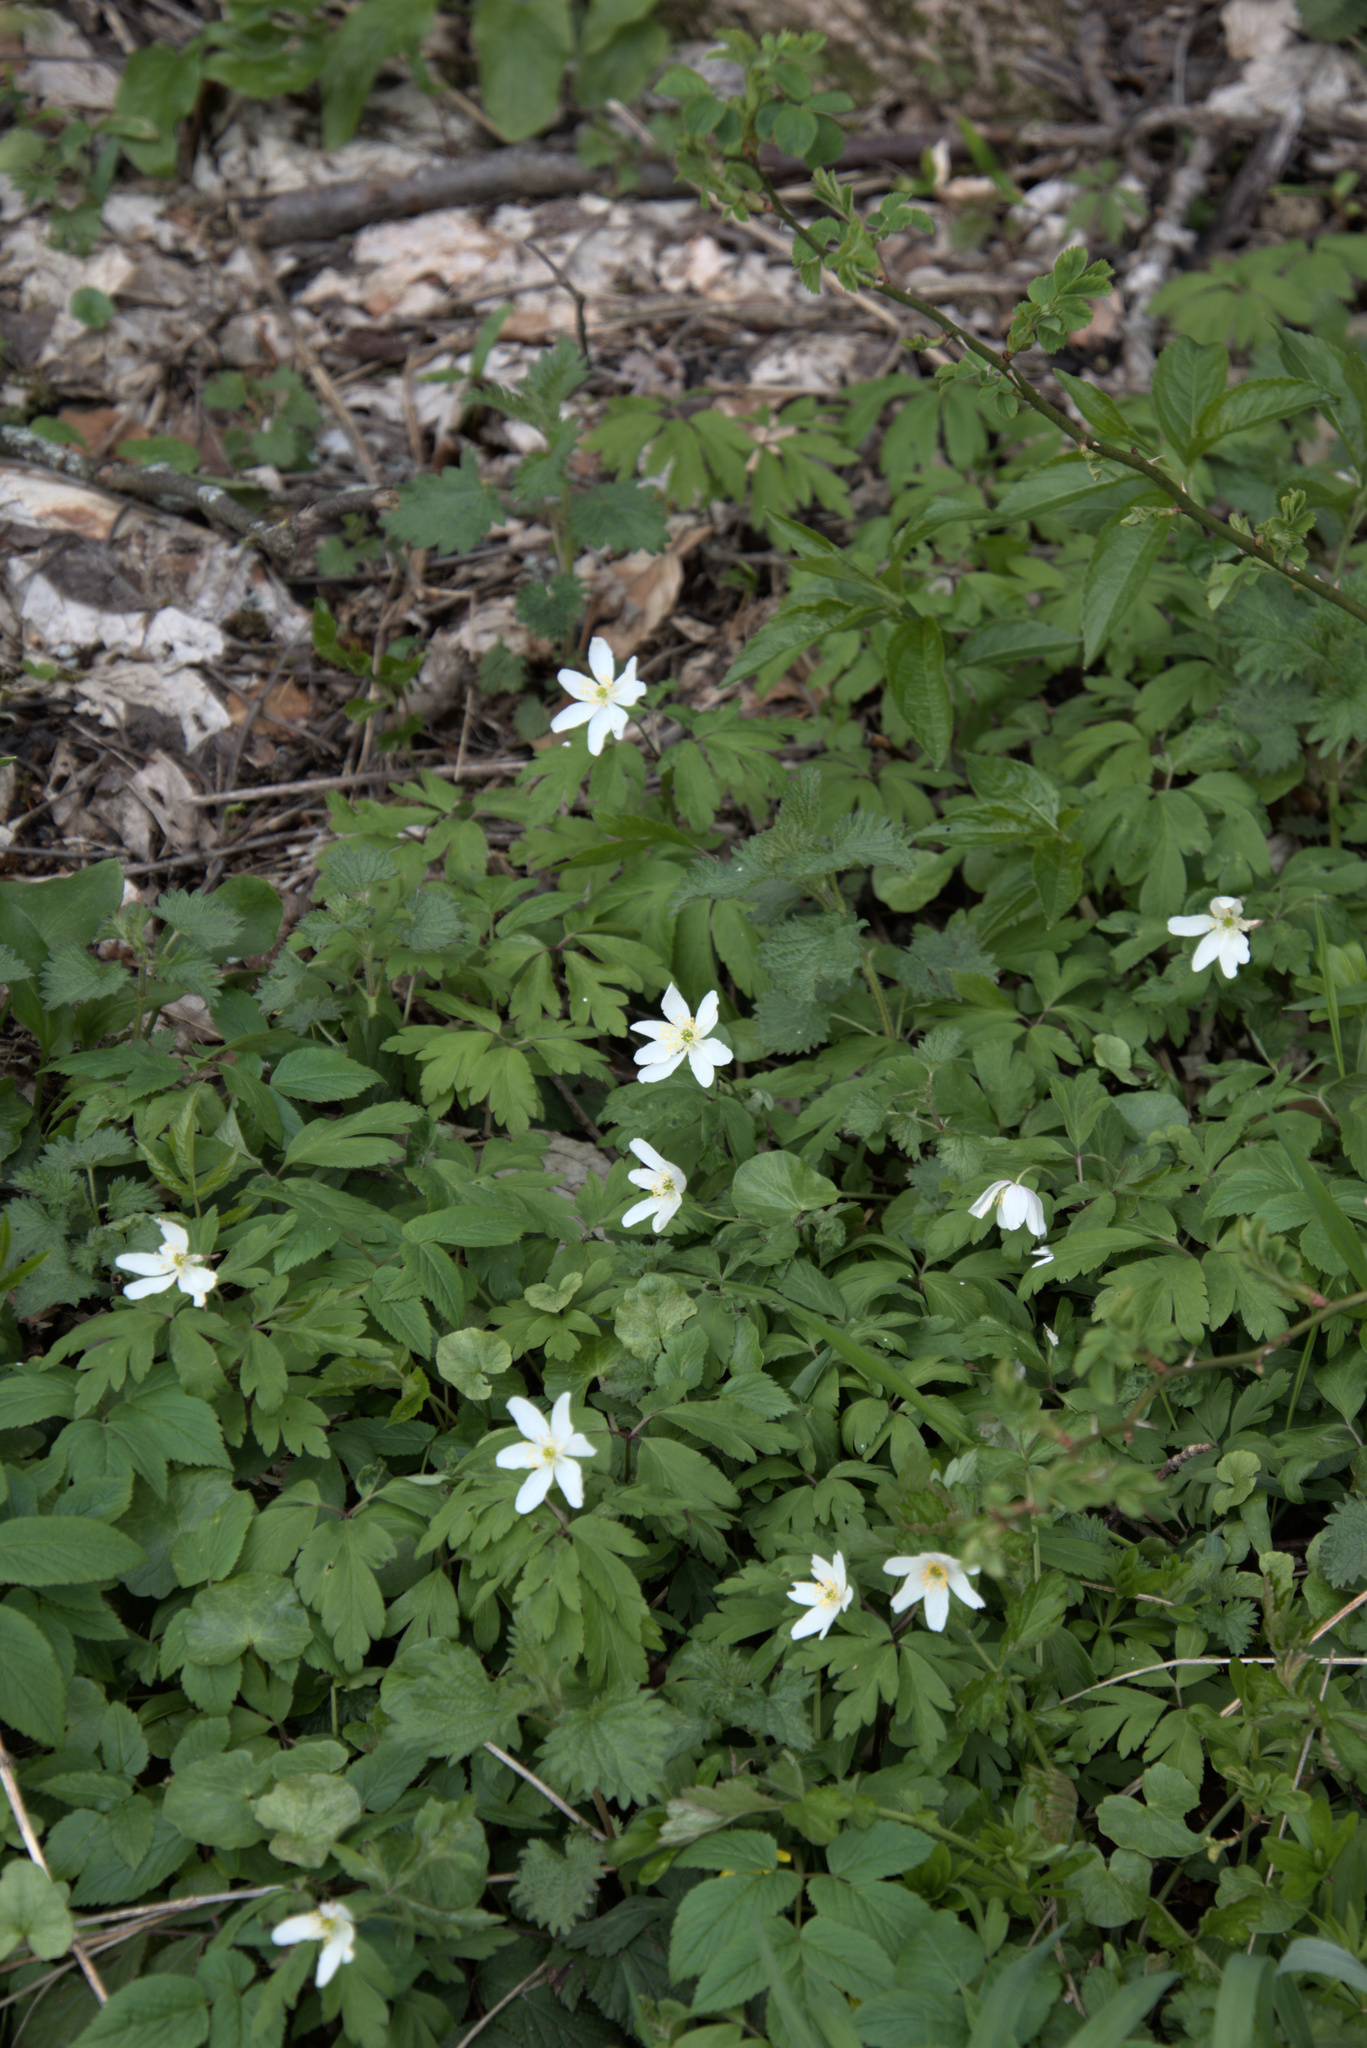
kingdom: Plantae
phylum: Tracheophyta
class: Magnoliopsida
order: Ranunculales
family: Ranunculaceae
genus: Anemone
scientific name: Anemone nemorosa
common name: Wood anemone
